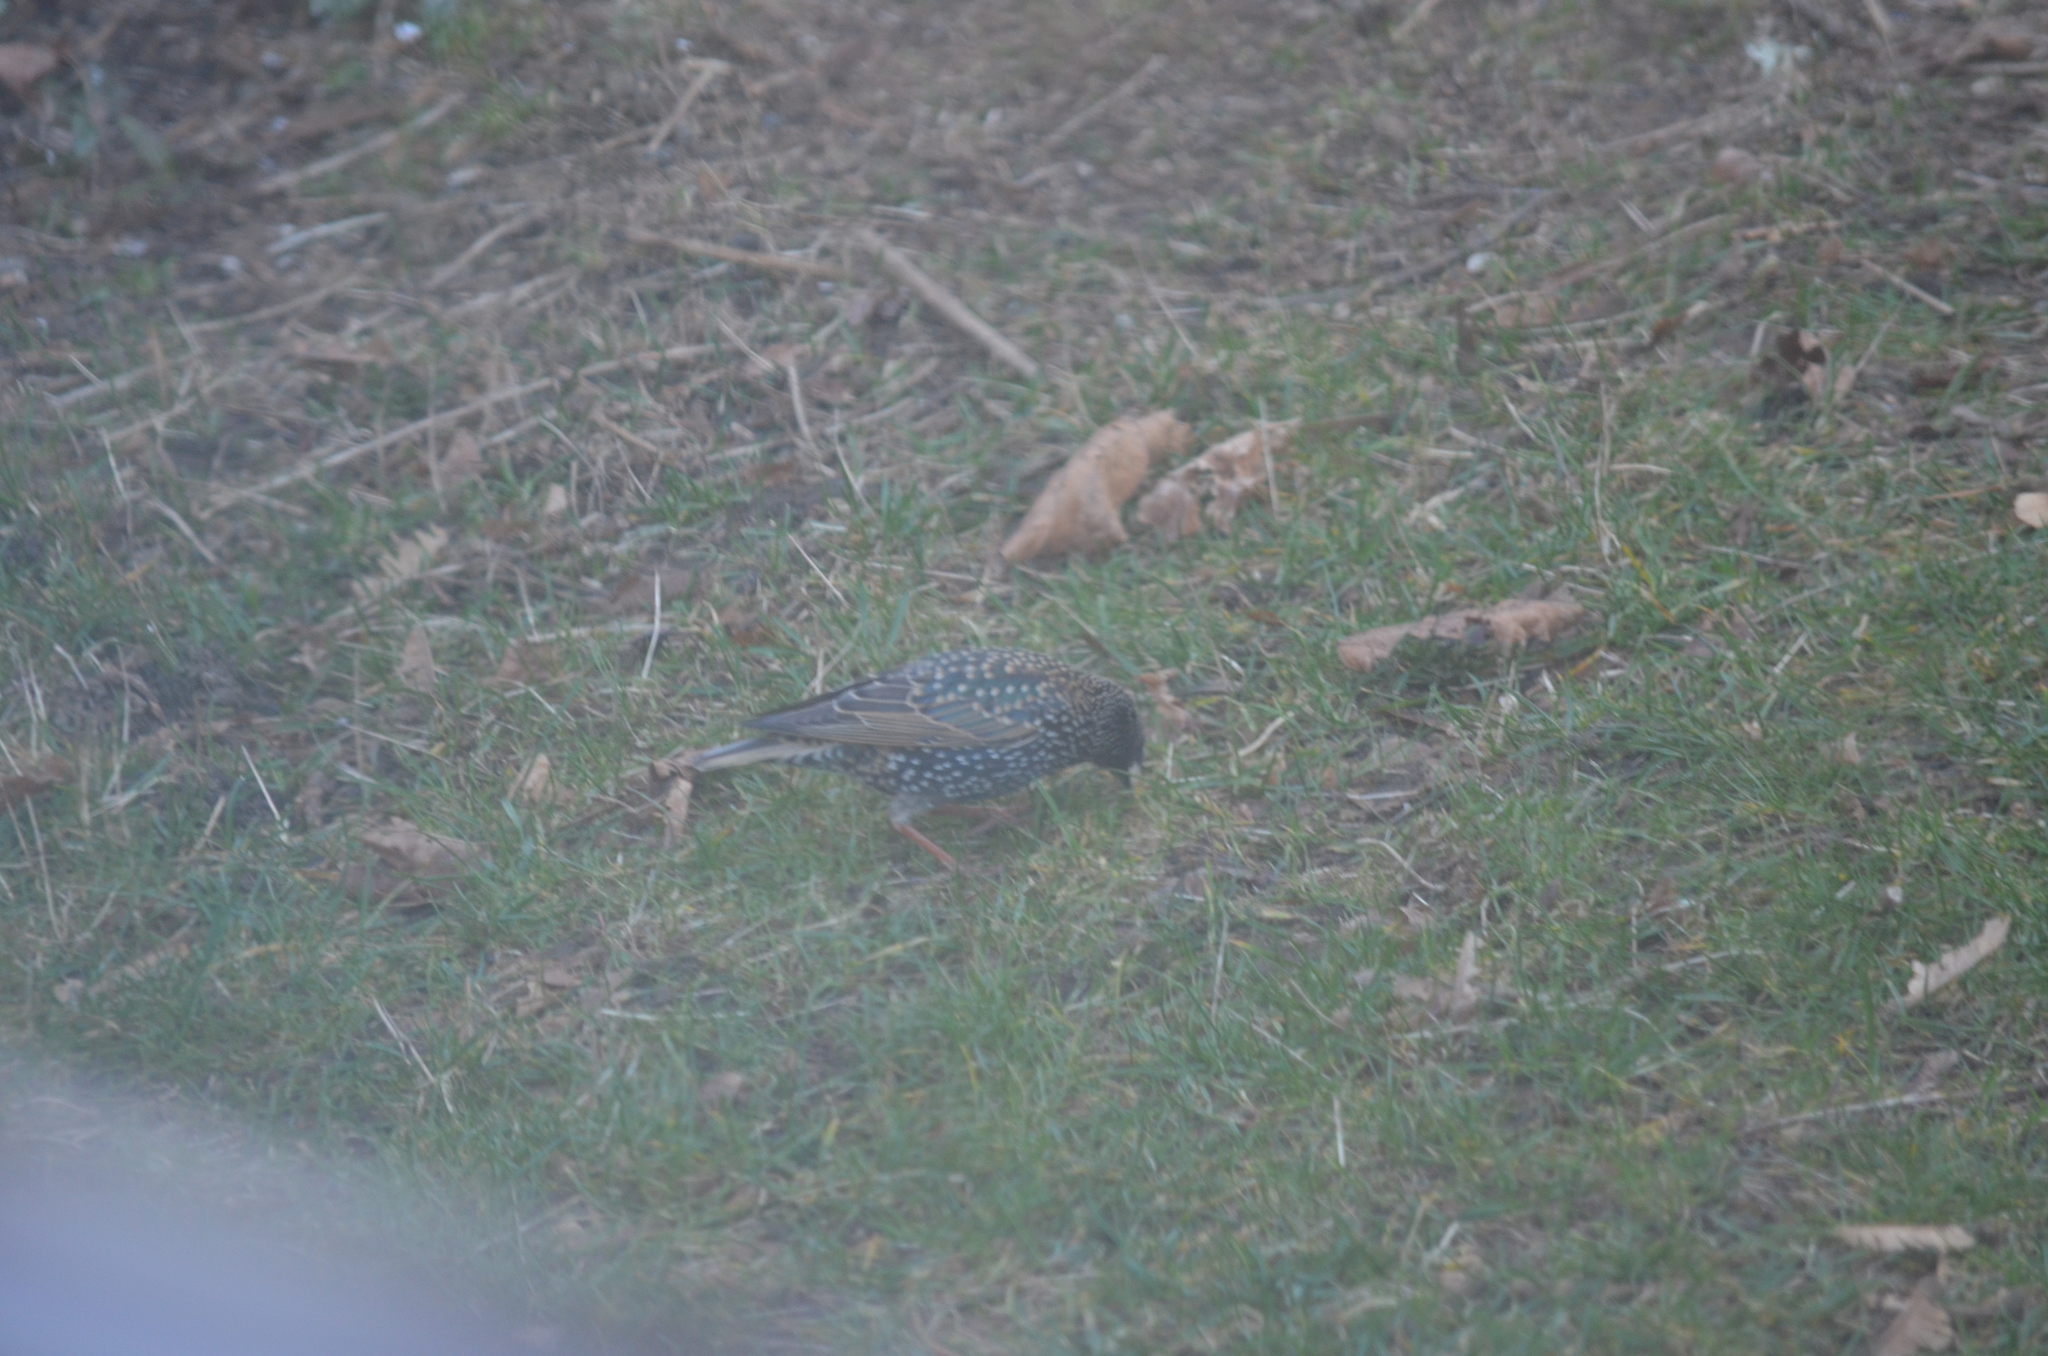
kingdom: Animalia
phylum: Chordata
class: Aves
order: Passeriformes
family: Sturnidae
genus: Sturnus
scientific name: Sturnus vulgaris
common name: Common starling
